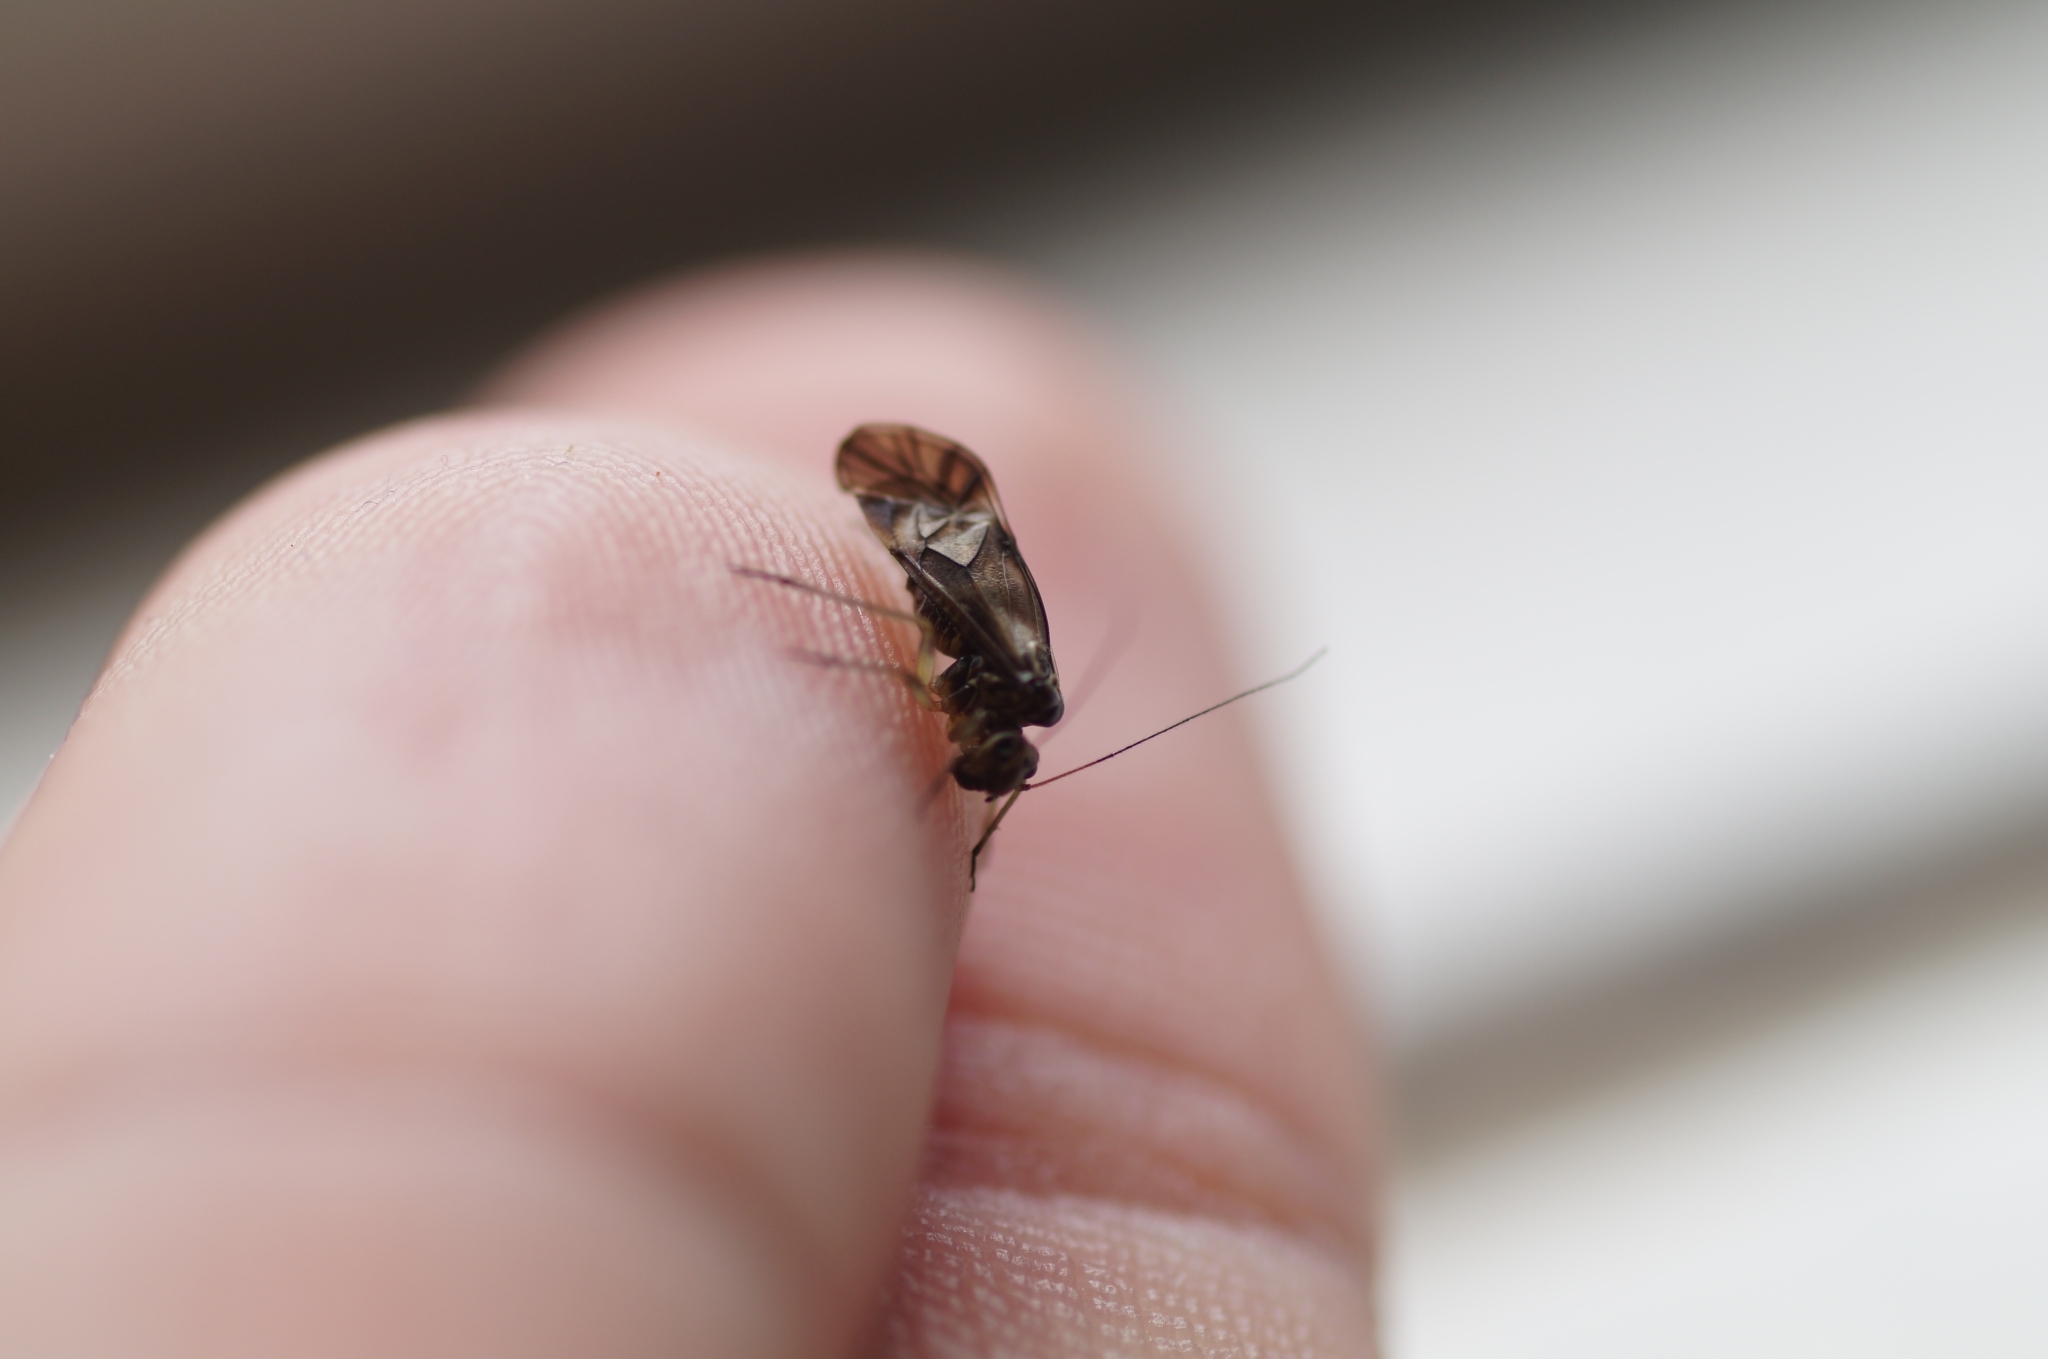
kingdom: Animalia
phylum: Arthropoda
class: Insecta
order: Psocodea
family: Psocidae
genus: Metylophorus
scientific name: Metylophorus nebulosus
